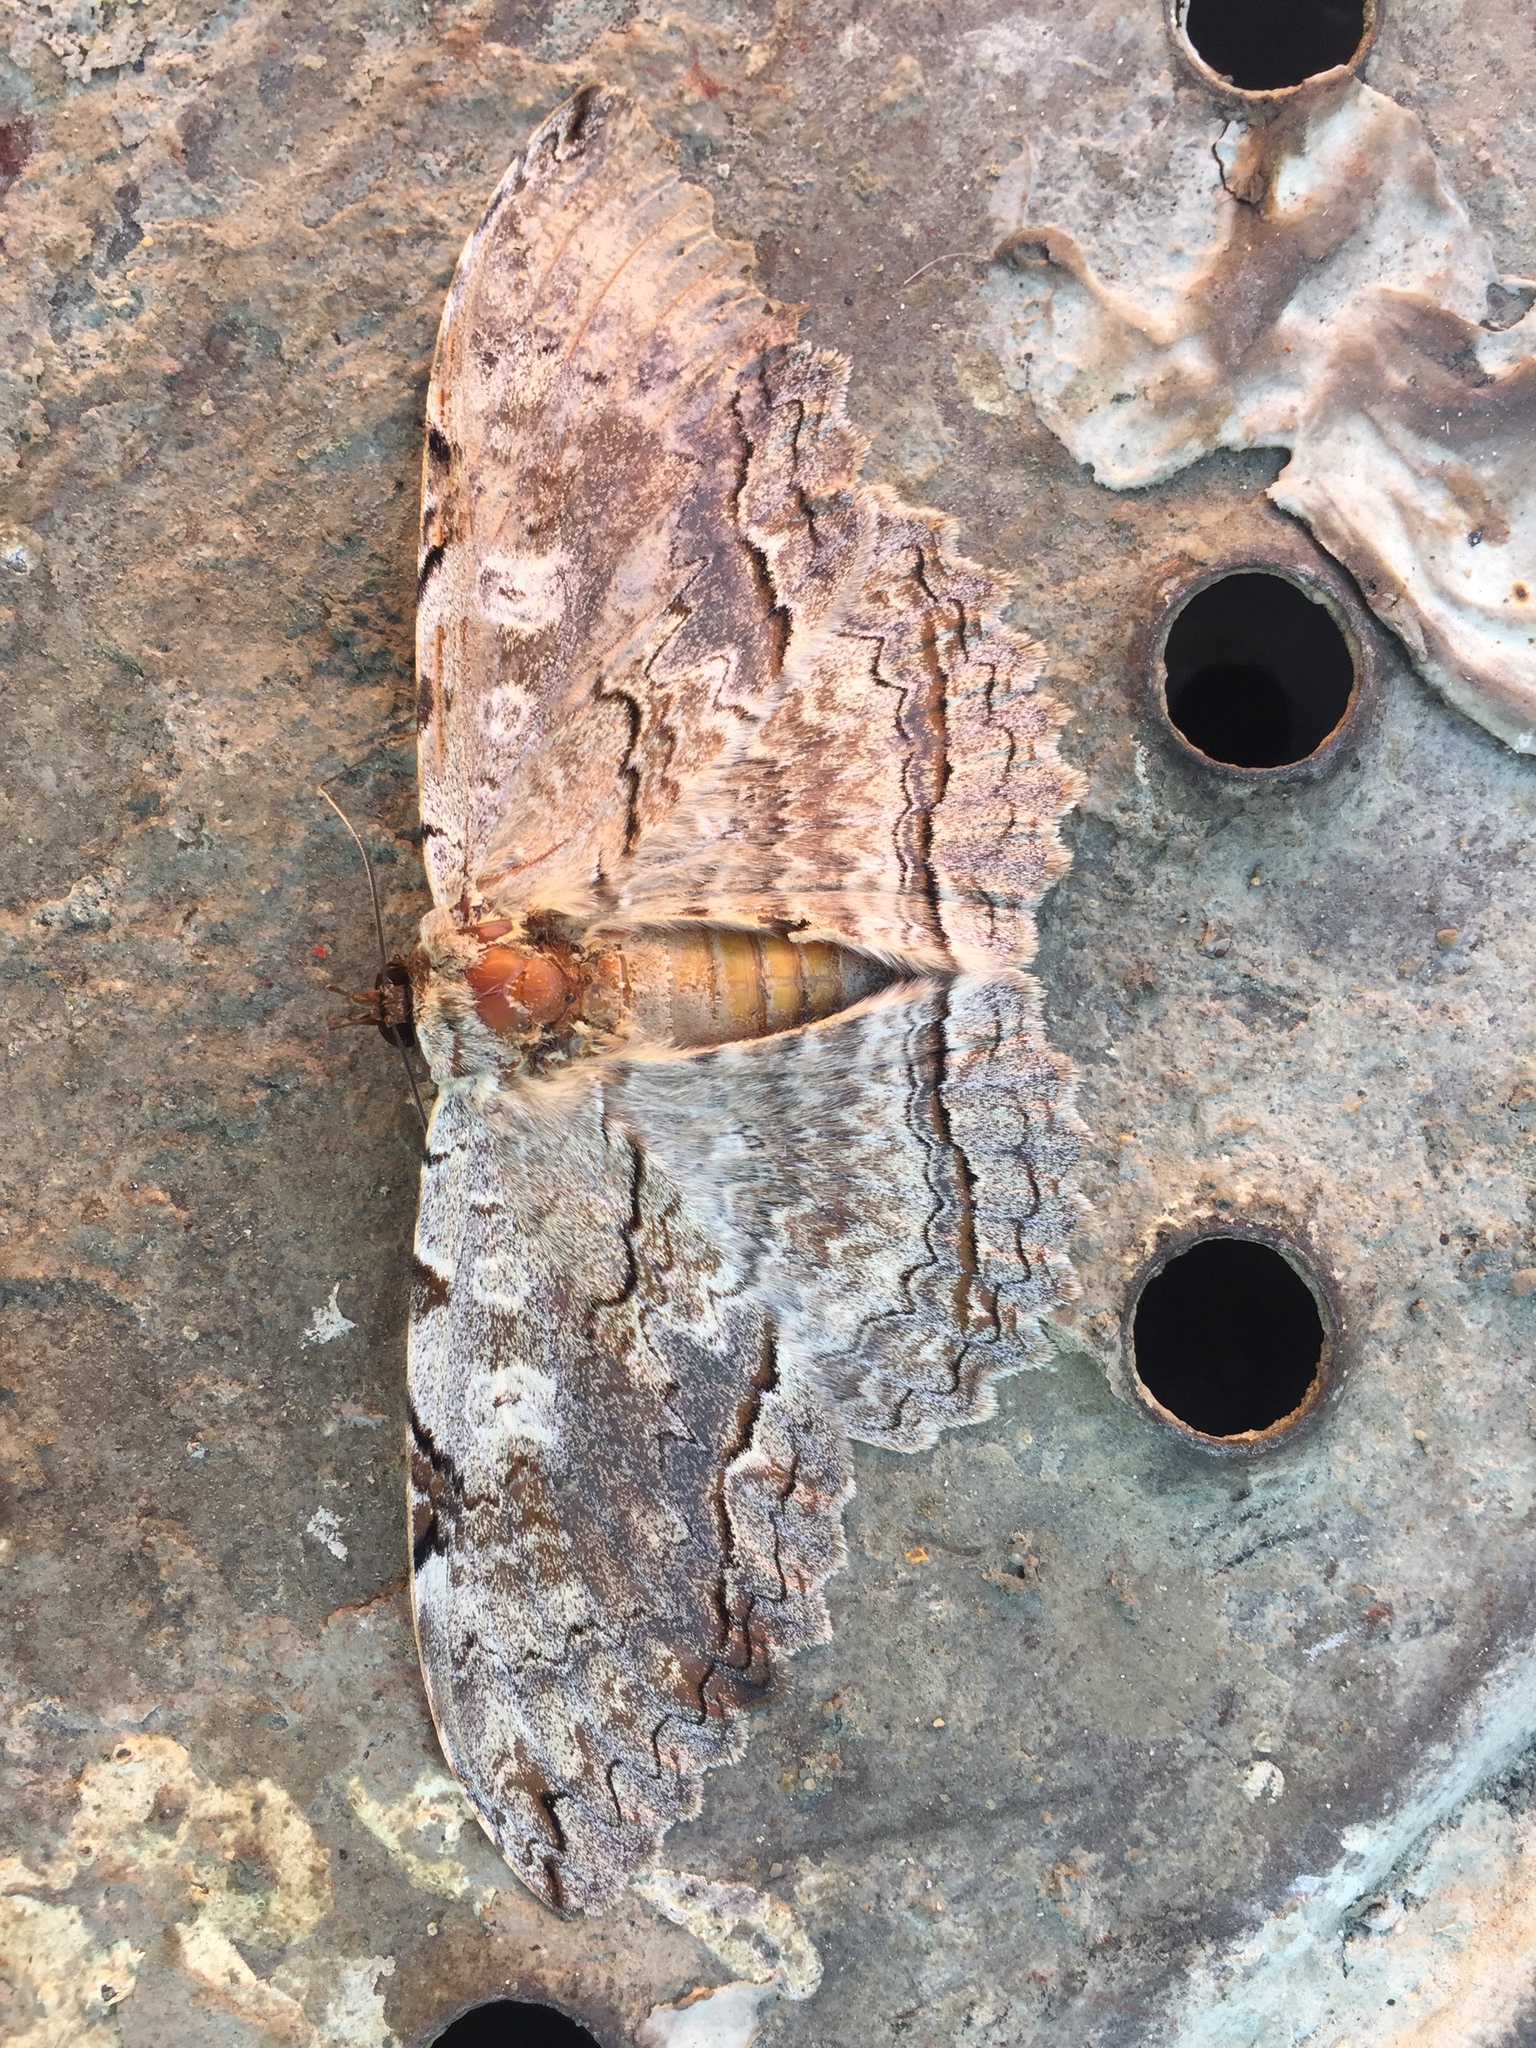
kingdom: Animalia
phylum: Arthropoda
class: Insecta
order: Lepidoptera
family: Erebidae
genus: Thysania
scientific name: Thysania zenobia
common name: Owl moth
